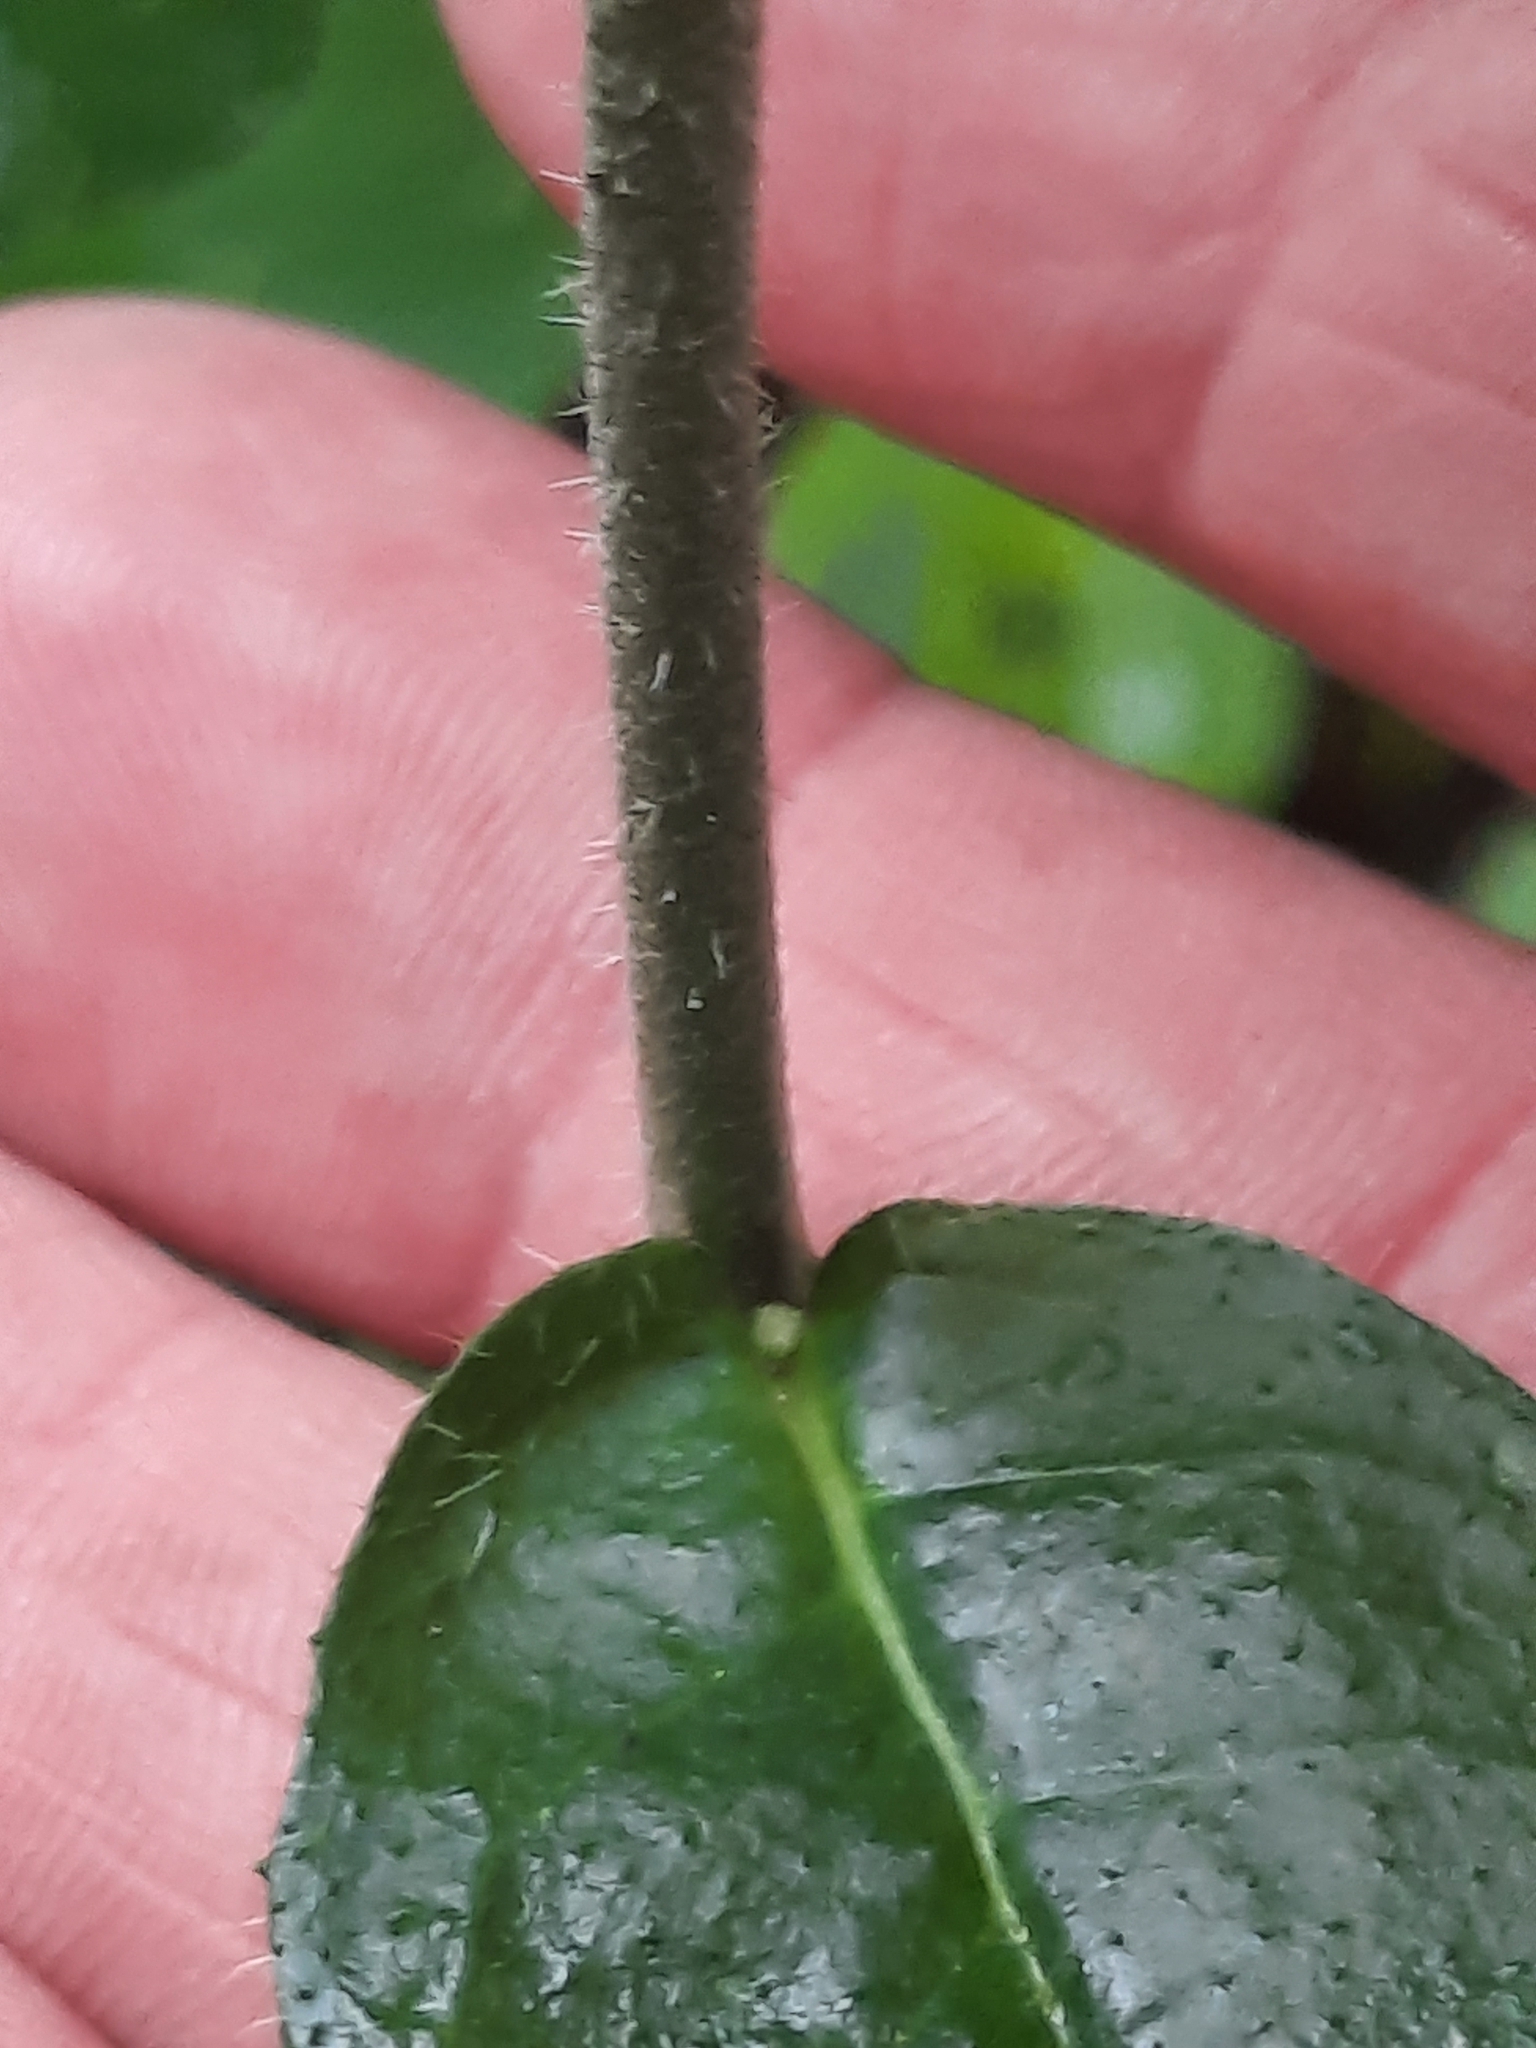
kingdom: Plantae
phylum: Tracheophyta
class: Magnoliopsida
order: Asterales
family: Asteraceae
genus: Hieracium
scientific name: Hieracium scabrum
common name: Rough hawkweed
